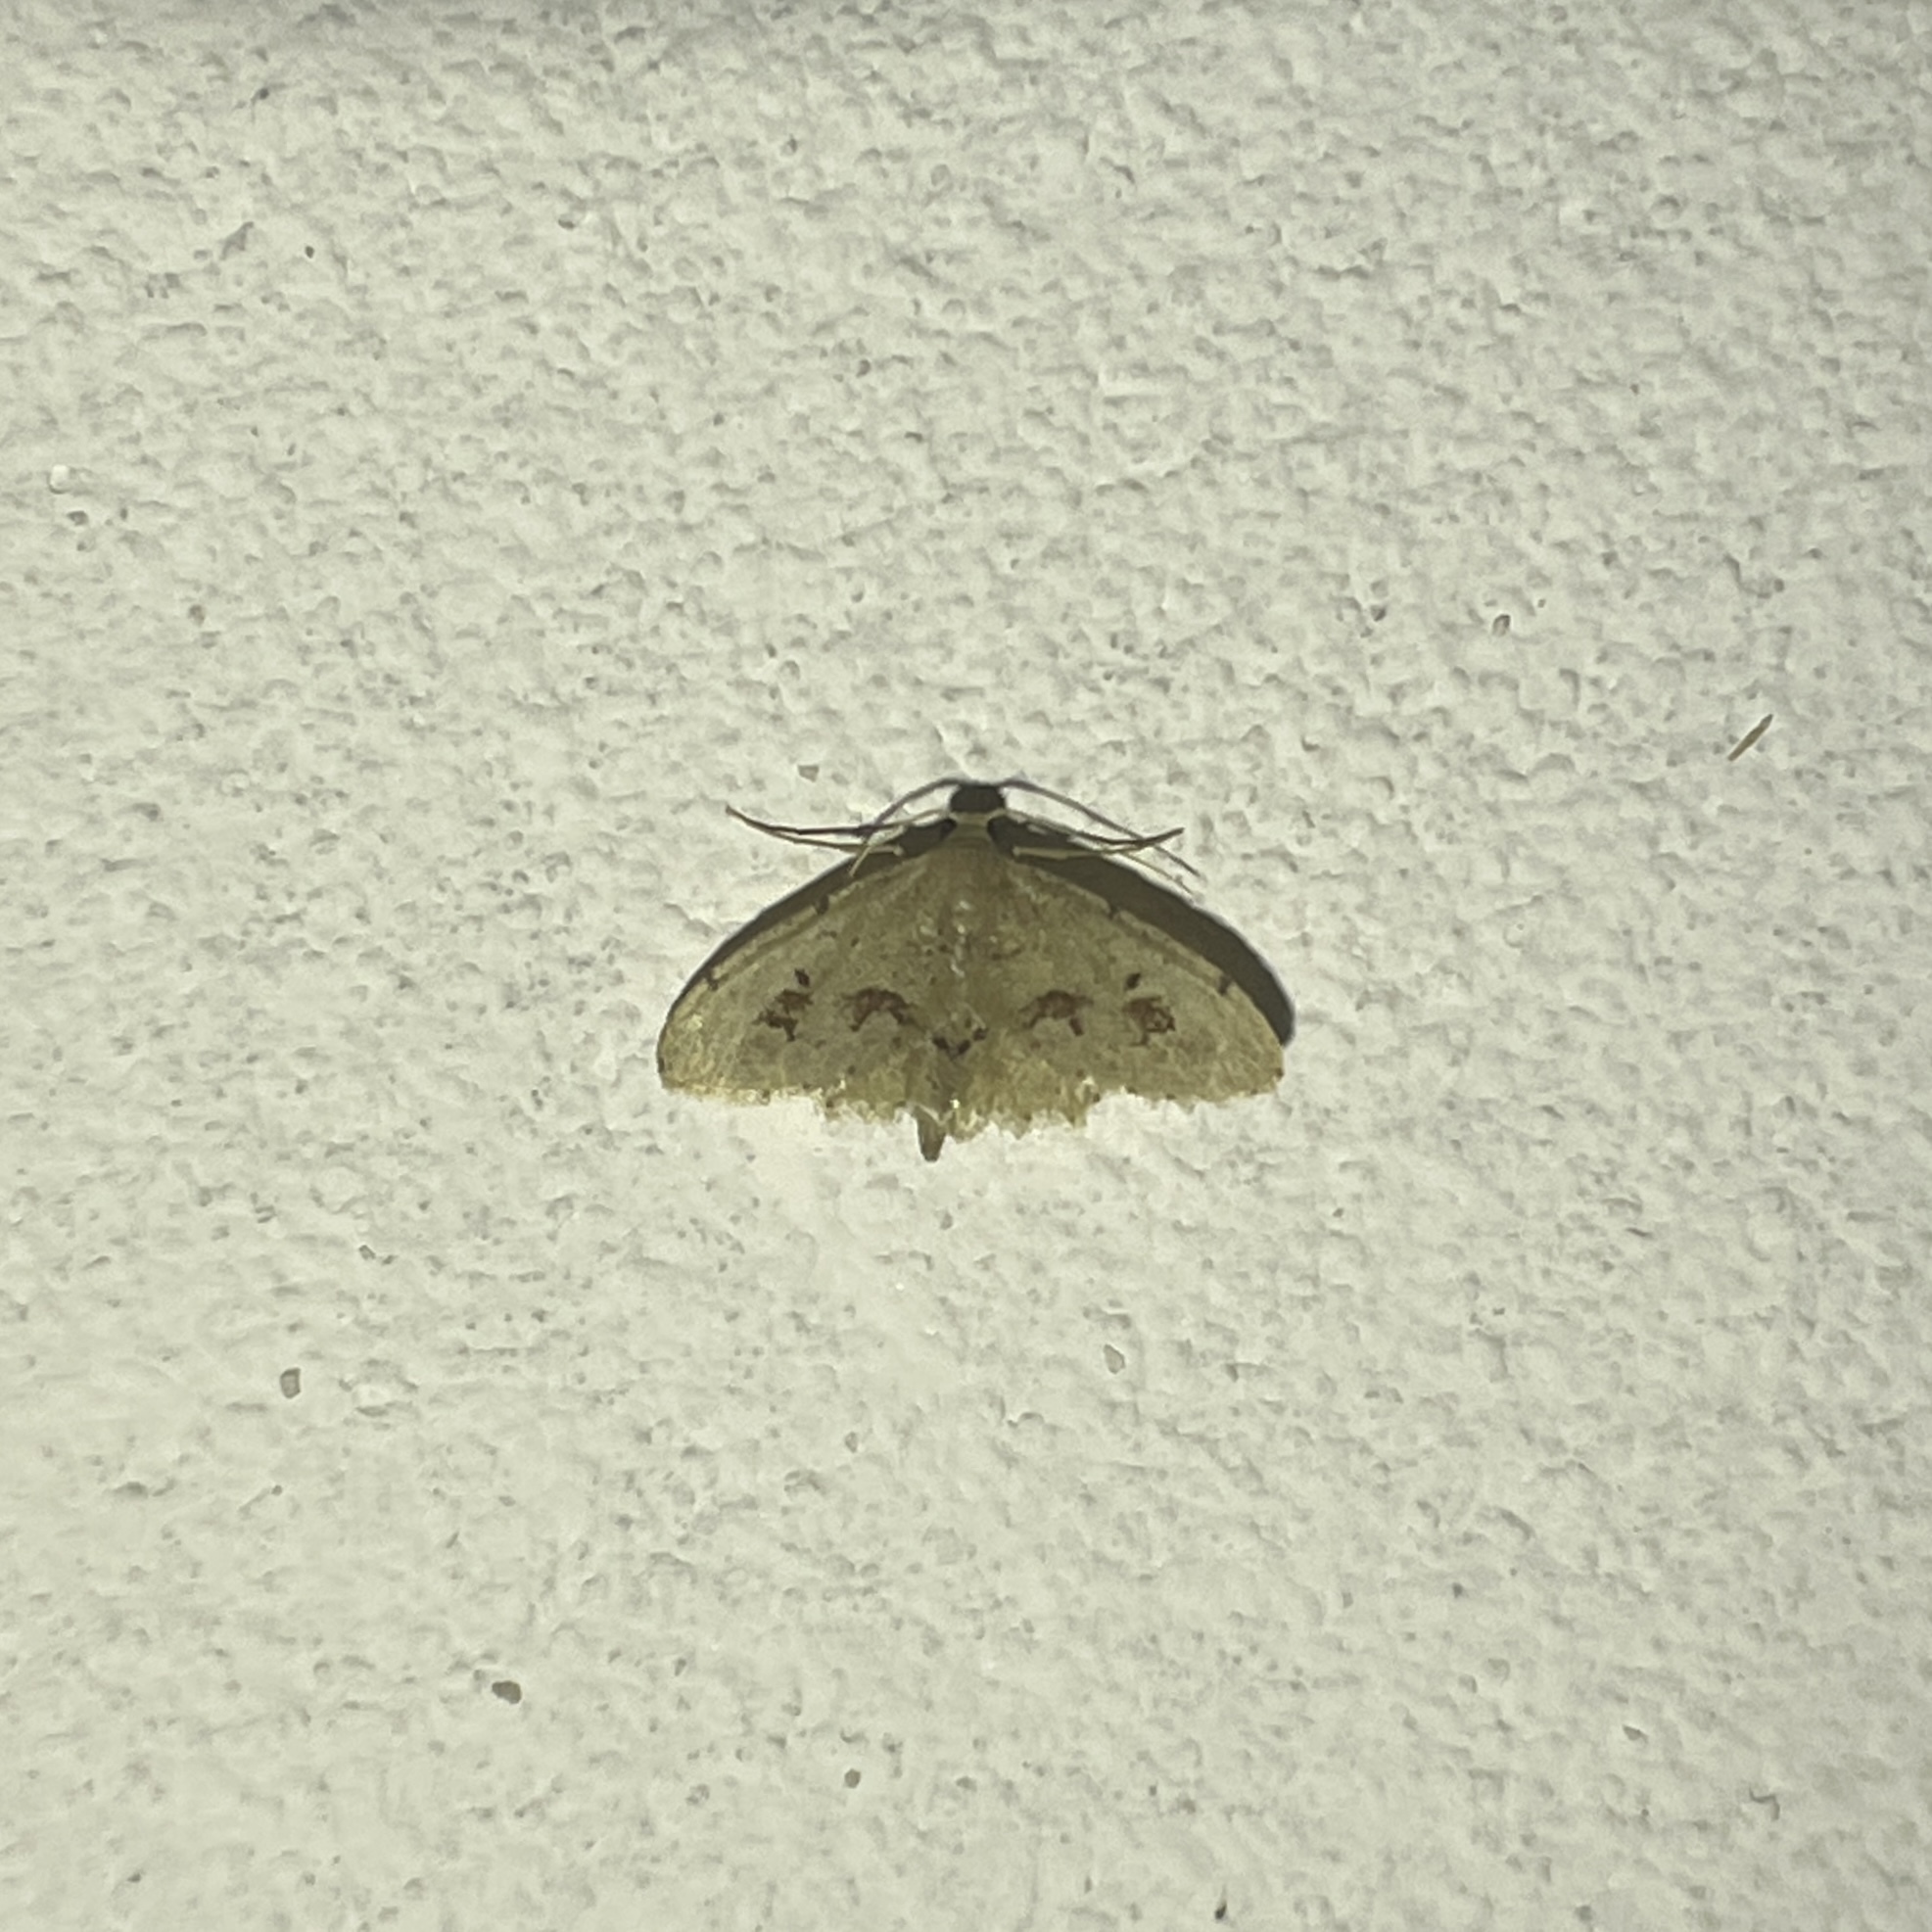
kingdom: Animalia
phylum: Arthropoda
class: Insecta
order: Lepidoptera
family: Geometridae
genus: Idaea
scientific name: Idaea gospera
